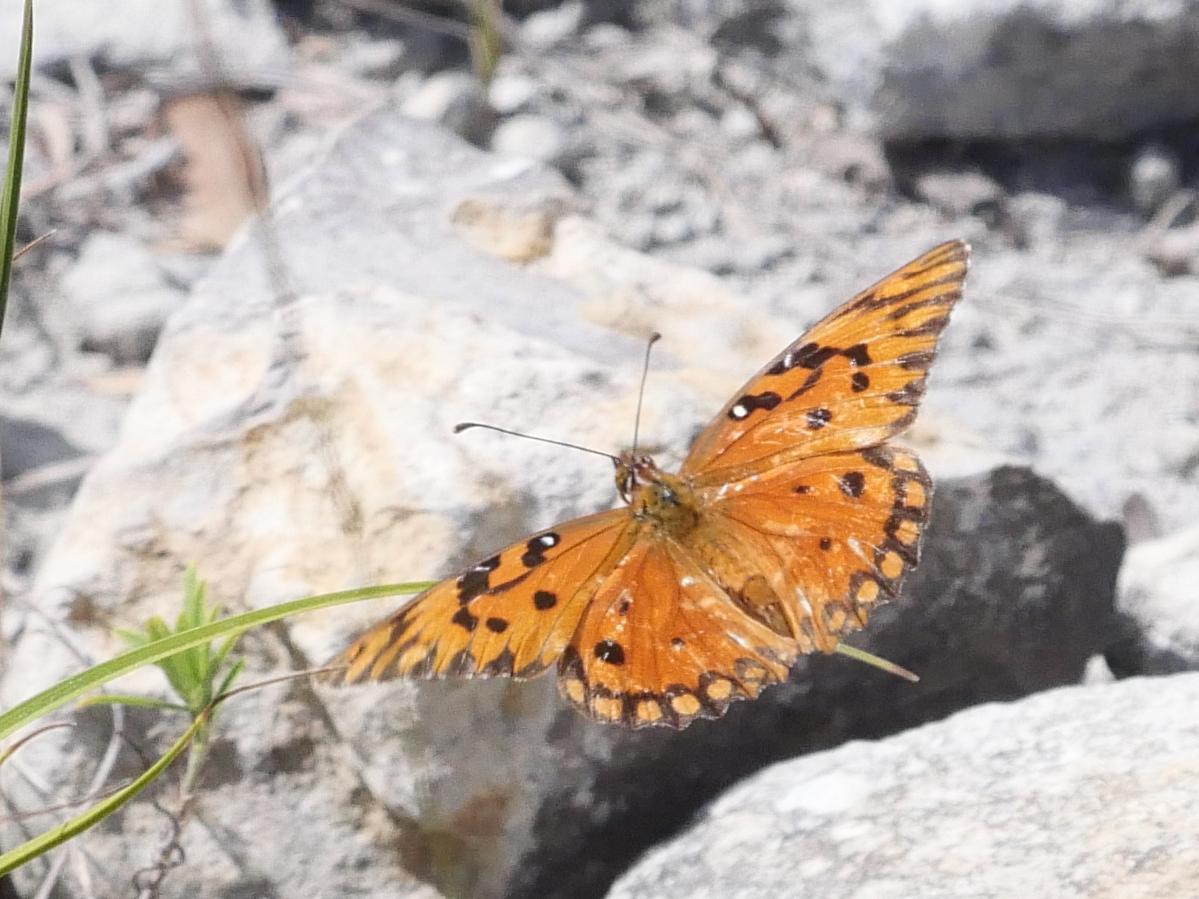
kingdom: Animalia
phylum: Arthropoda
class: Insecta
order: Lepidoptera
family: Nymphalidae
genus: Dione
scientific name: Dione vanillae
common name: Gulf fritillary
